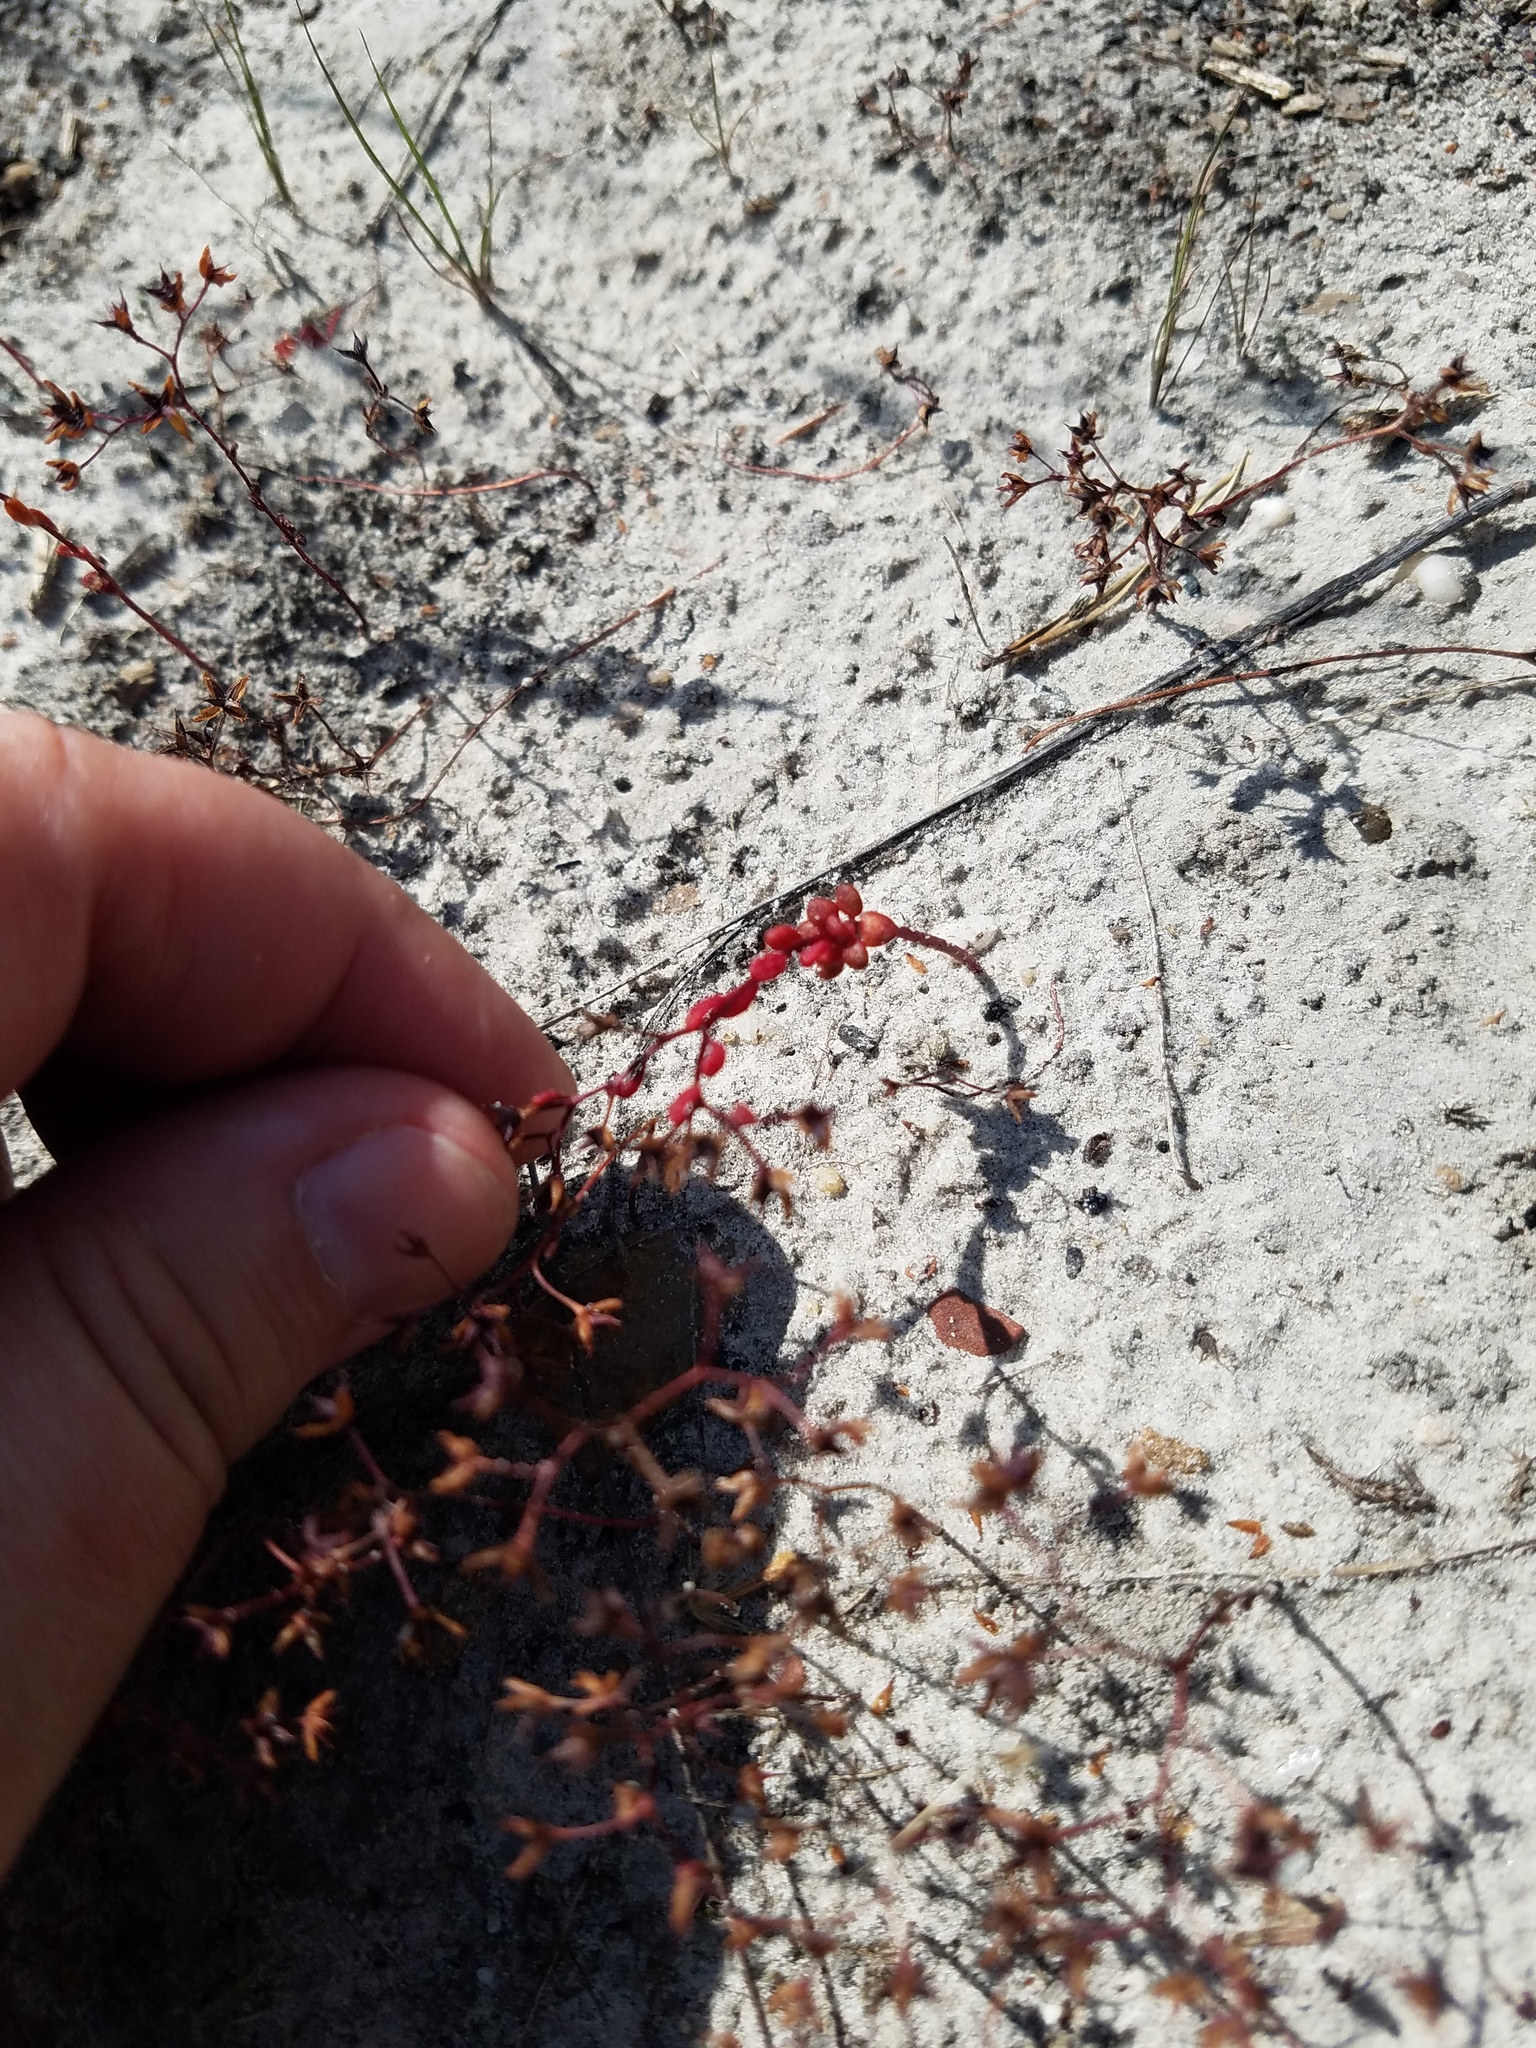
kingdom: Plantae
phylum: Tracheophyta
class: Magnoliopsida
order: Saxifragales
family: Crassulaceae
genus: Sedum
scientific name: Sedum smallii
